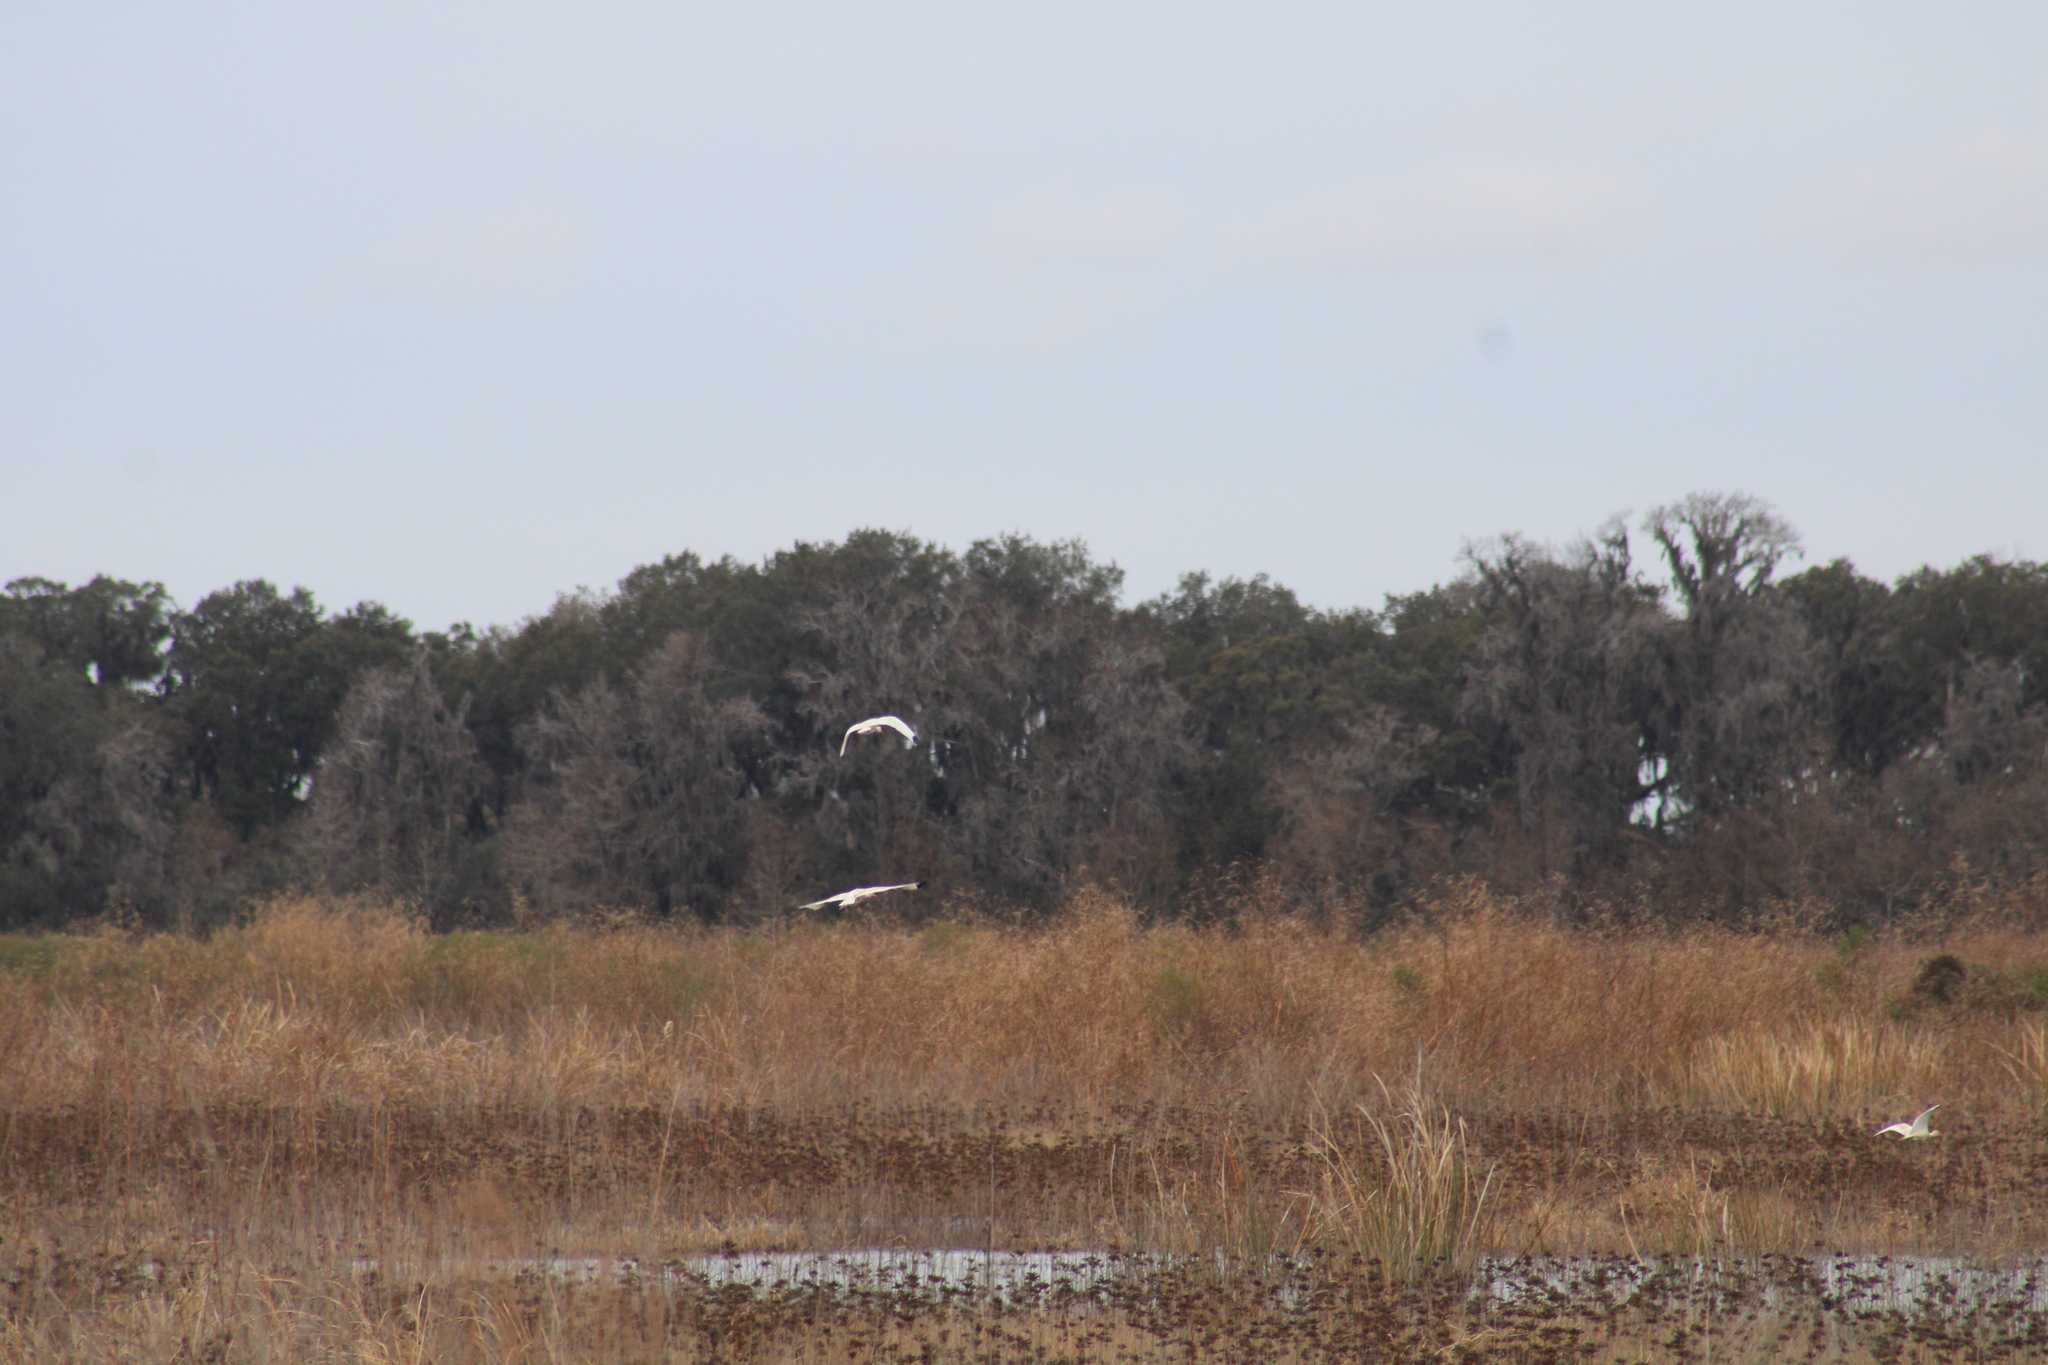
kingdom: Animalia
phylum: Chordata
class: Aves
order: Pelecaniformes
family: Threskiornithidae
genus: Eudocimus
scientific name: Eudocimus albus
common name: White ibis
